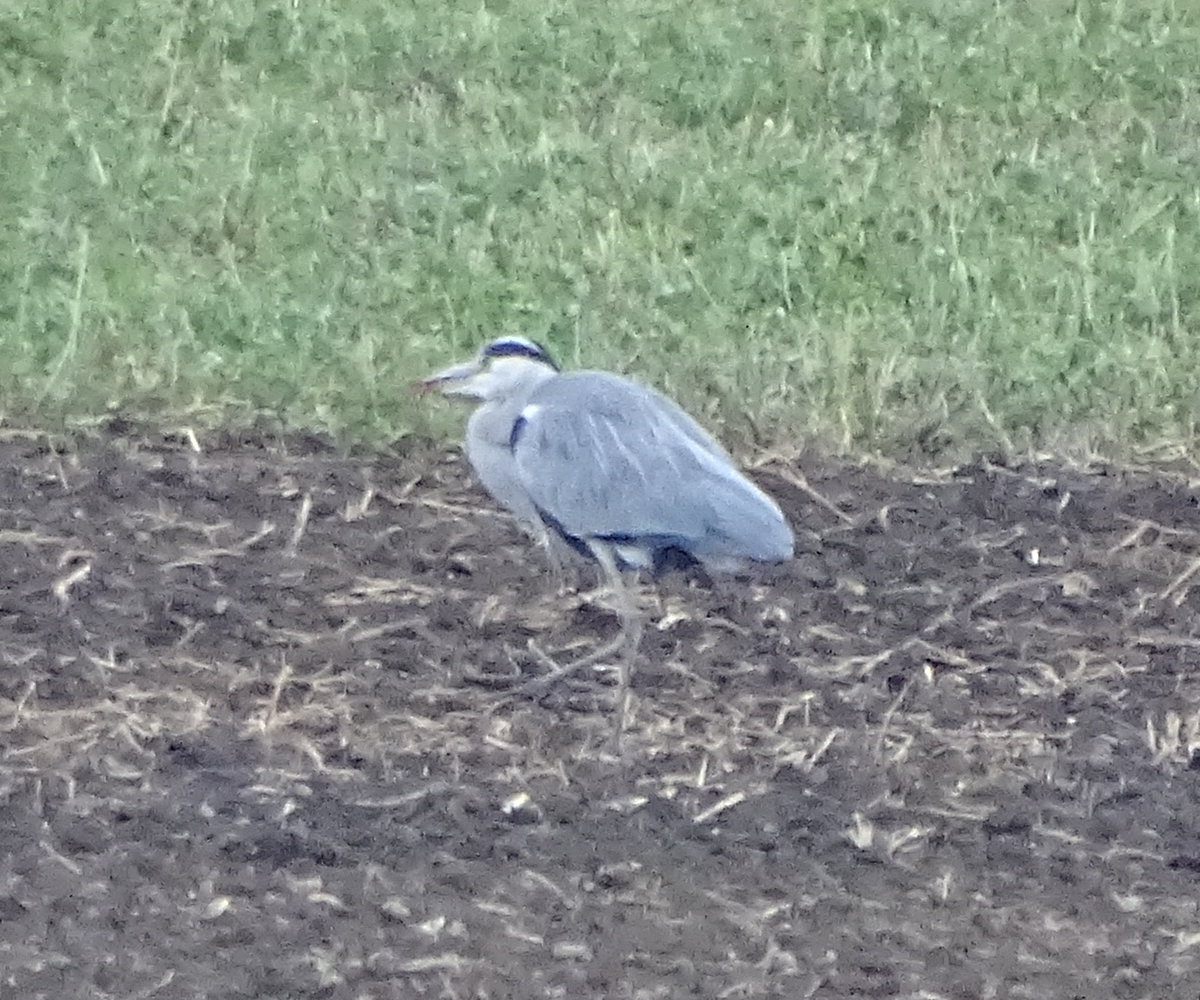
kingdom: Animalia
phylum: Chordata
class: Aves
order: Pelecaniformes
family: Ardeidae
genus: Ardea
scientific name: Ardea cinerea
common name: Grey heron
